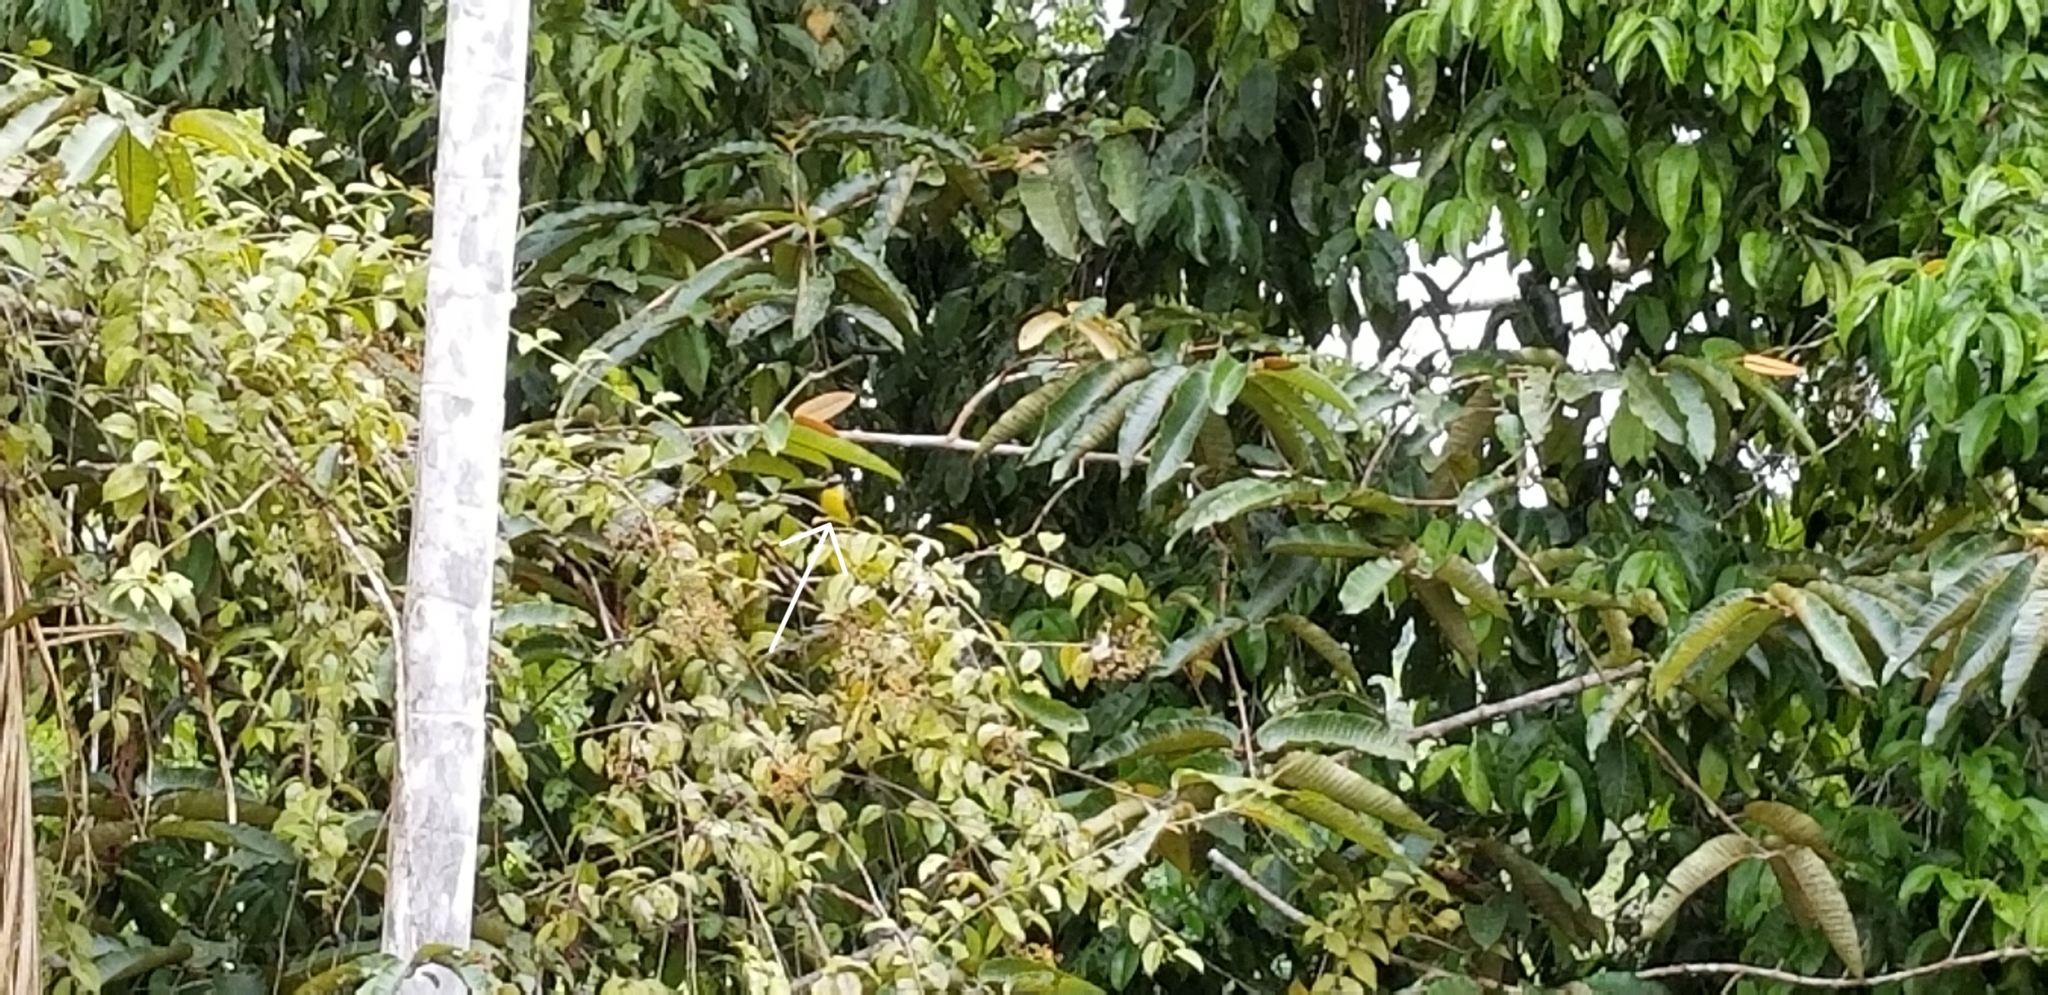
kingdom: Animalia
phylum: Chordata
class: Aves
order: Passeriformes
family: Tyrannidae
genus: Pitangus
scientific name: Pitangus sulphuratus
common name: Great kiskadee
